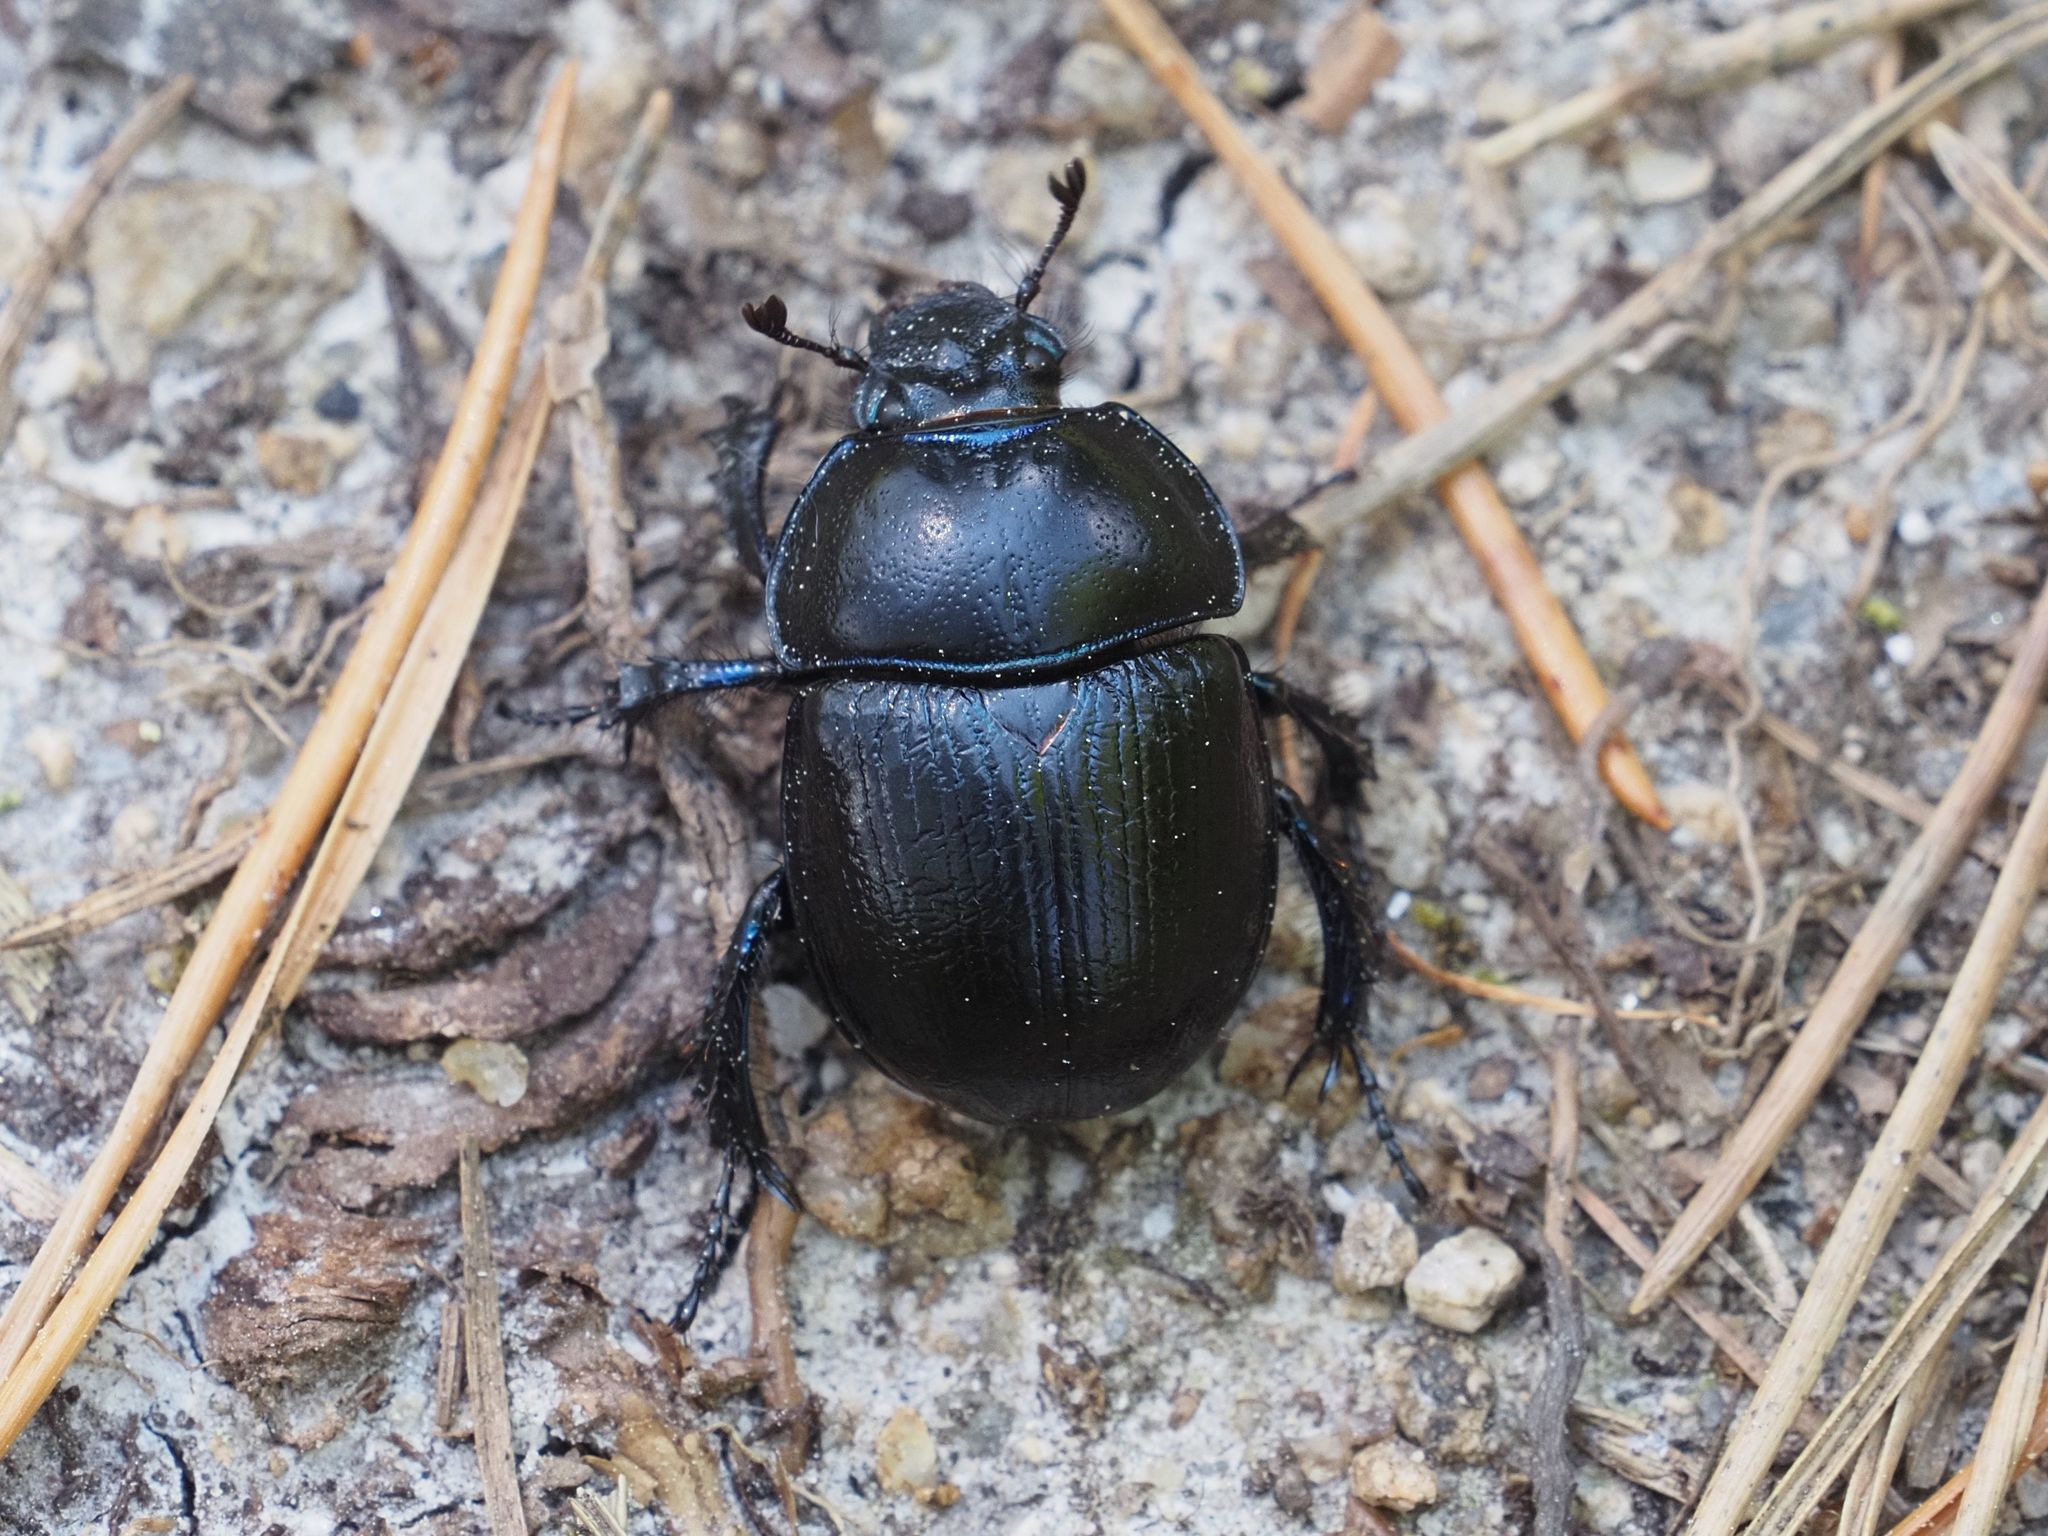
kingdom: Animalia
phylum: Arthropoda
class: Insecta
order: Coleoptera
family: Geotrupidae
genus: Anoplotrupes
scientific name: Anoplotrupes stercorosus
